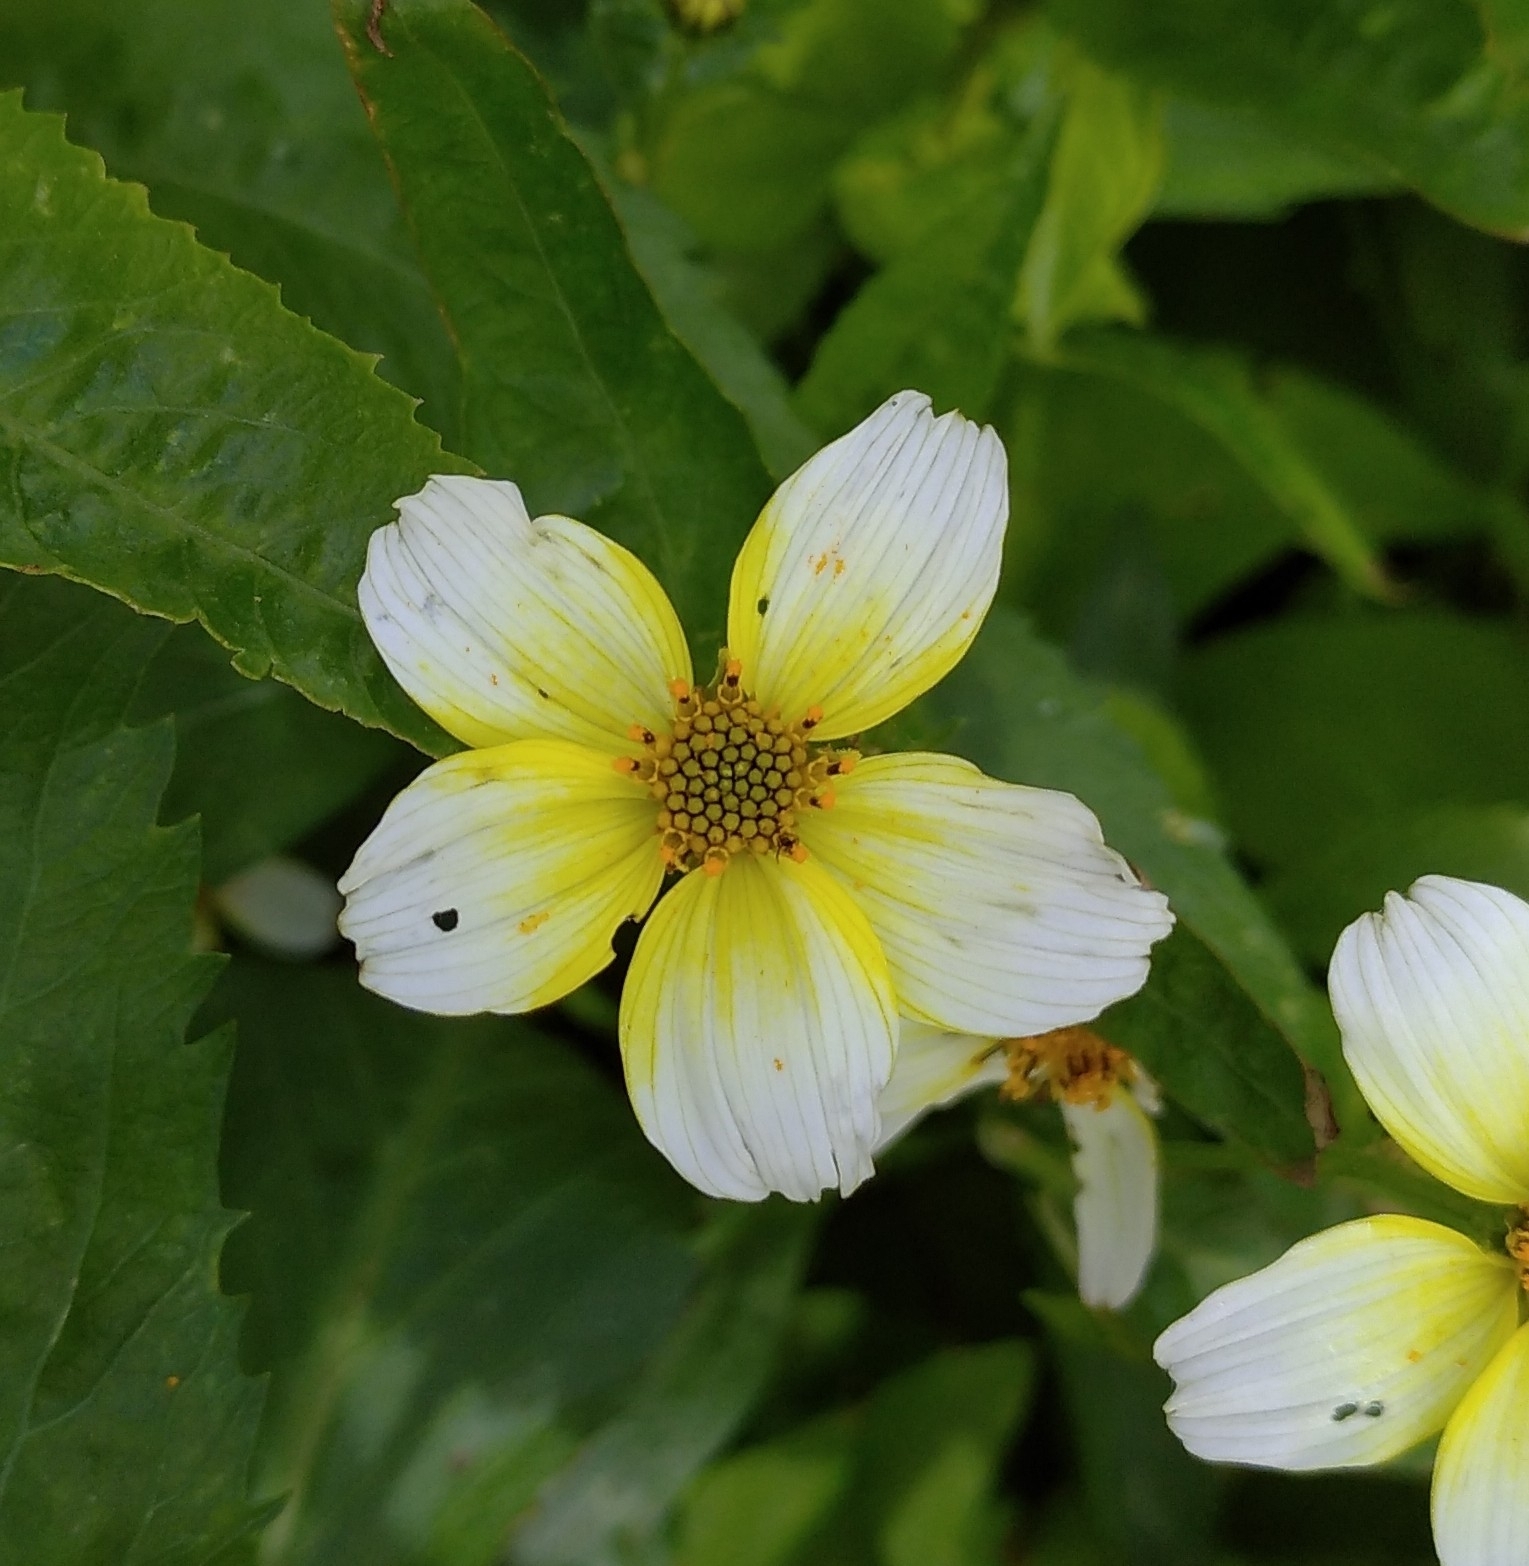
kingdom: Plantae
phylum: Tracheophyta
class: Magnoliopsida
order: Asterales
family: Asteraceae
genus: Bidens
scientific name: Bidens aurea
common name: Arizona beggar-ticks
